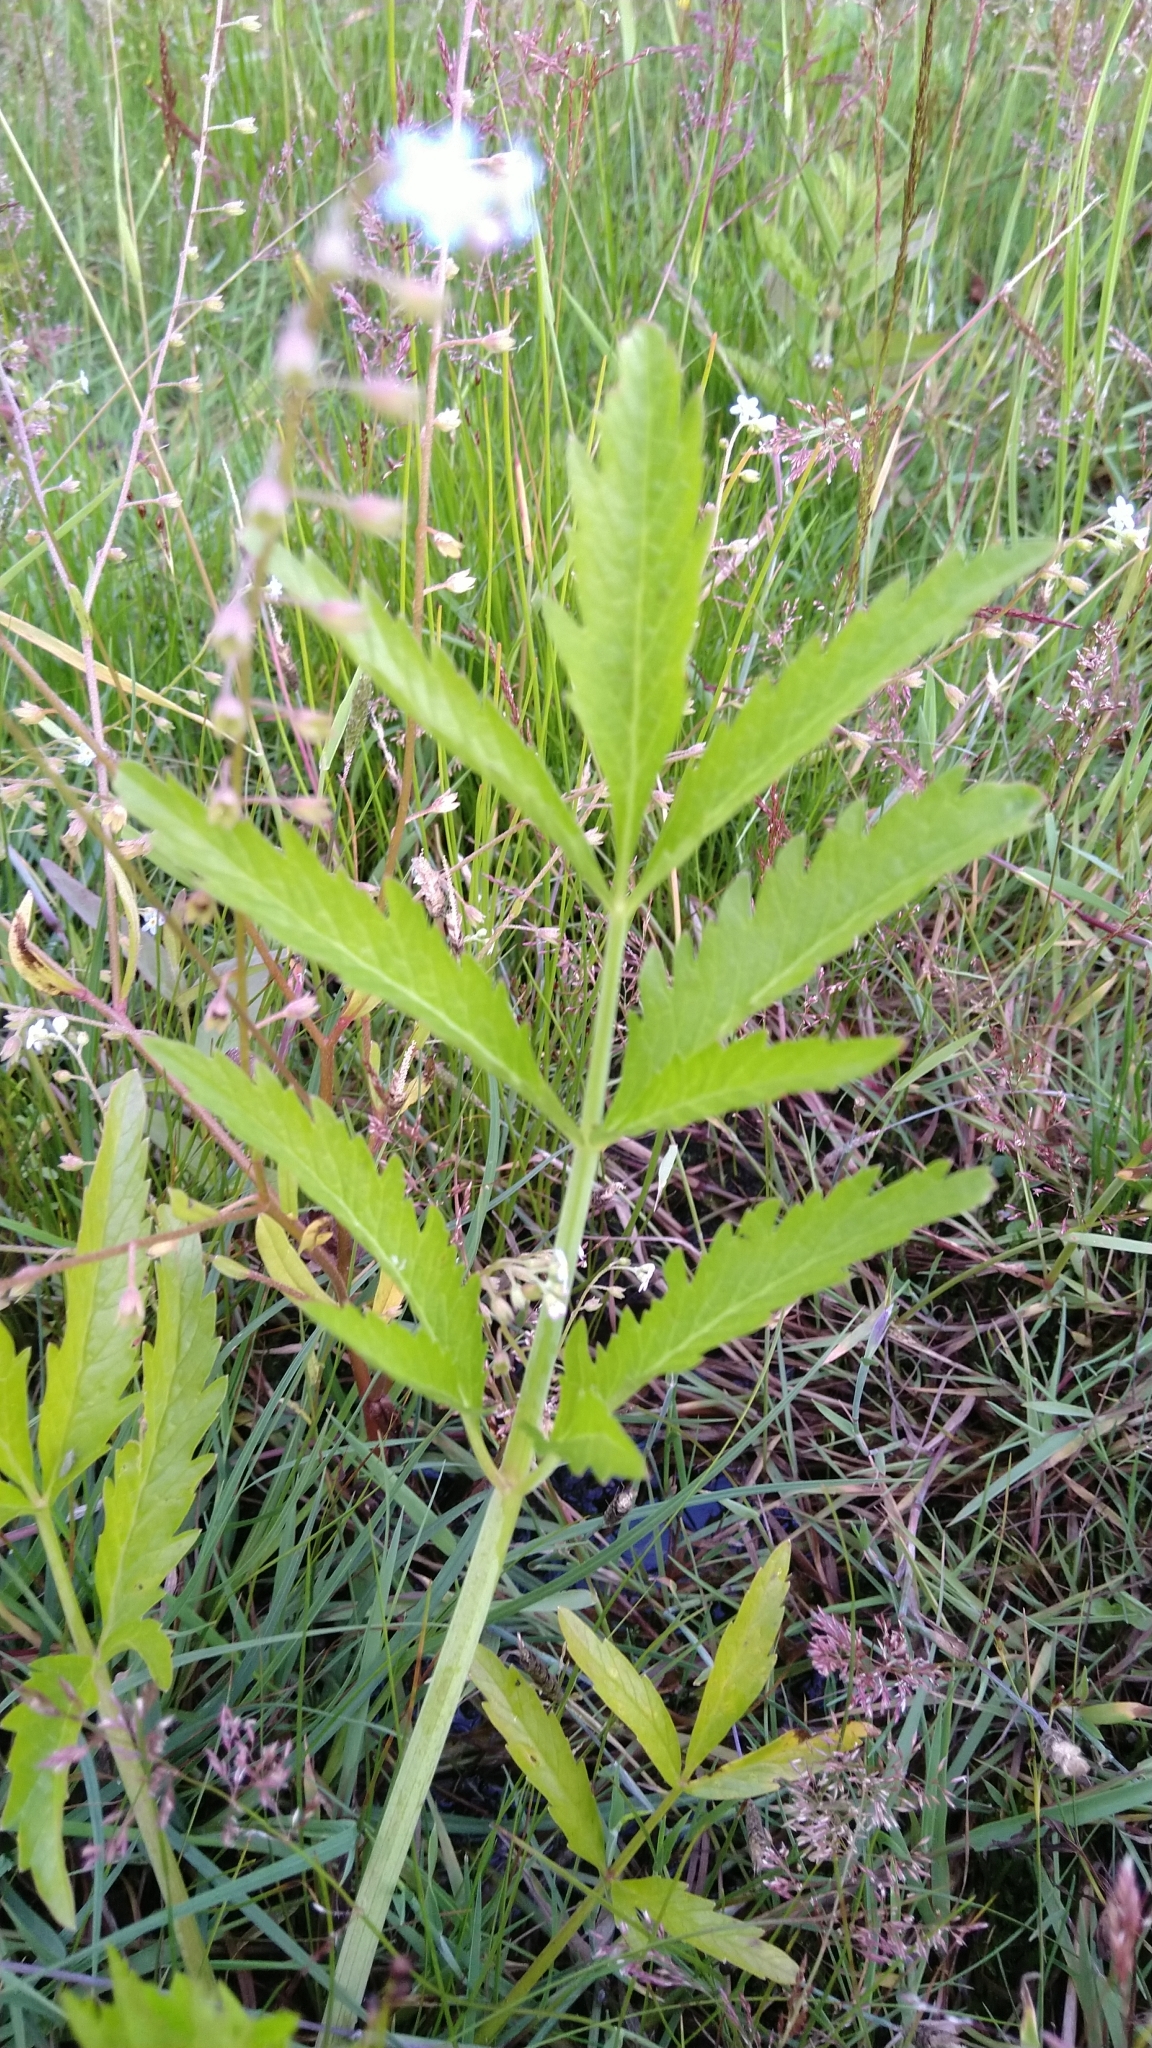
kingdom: Plantae
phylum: Tracheophyta
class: Magnoliopsida
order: Apiales
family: Apiaceae
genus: Cicuta
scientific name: Cicuta virosa
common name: Cowbane
